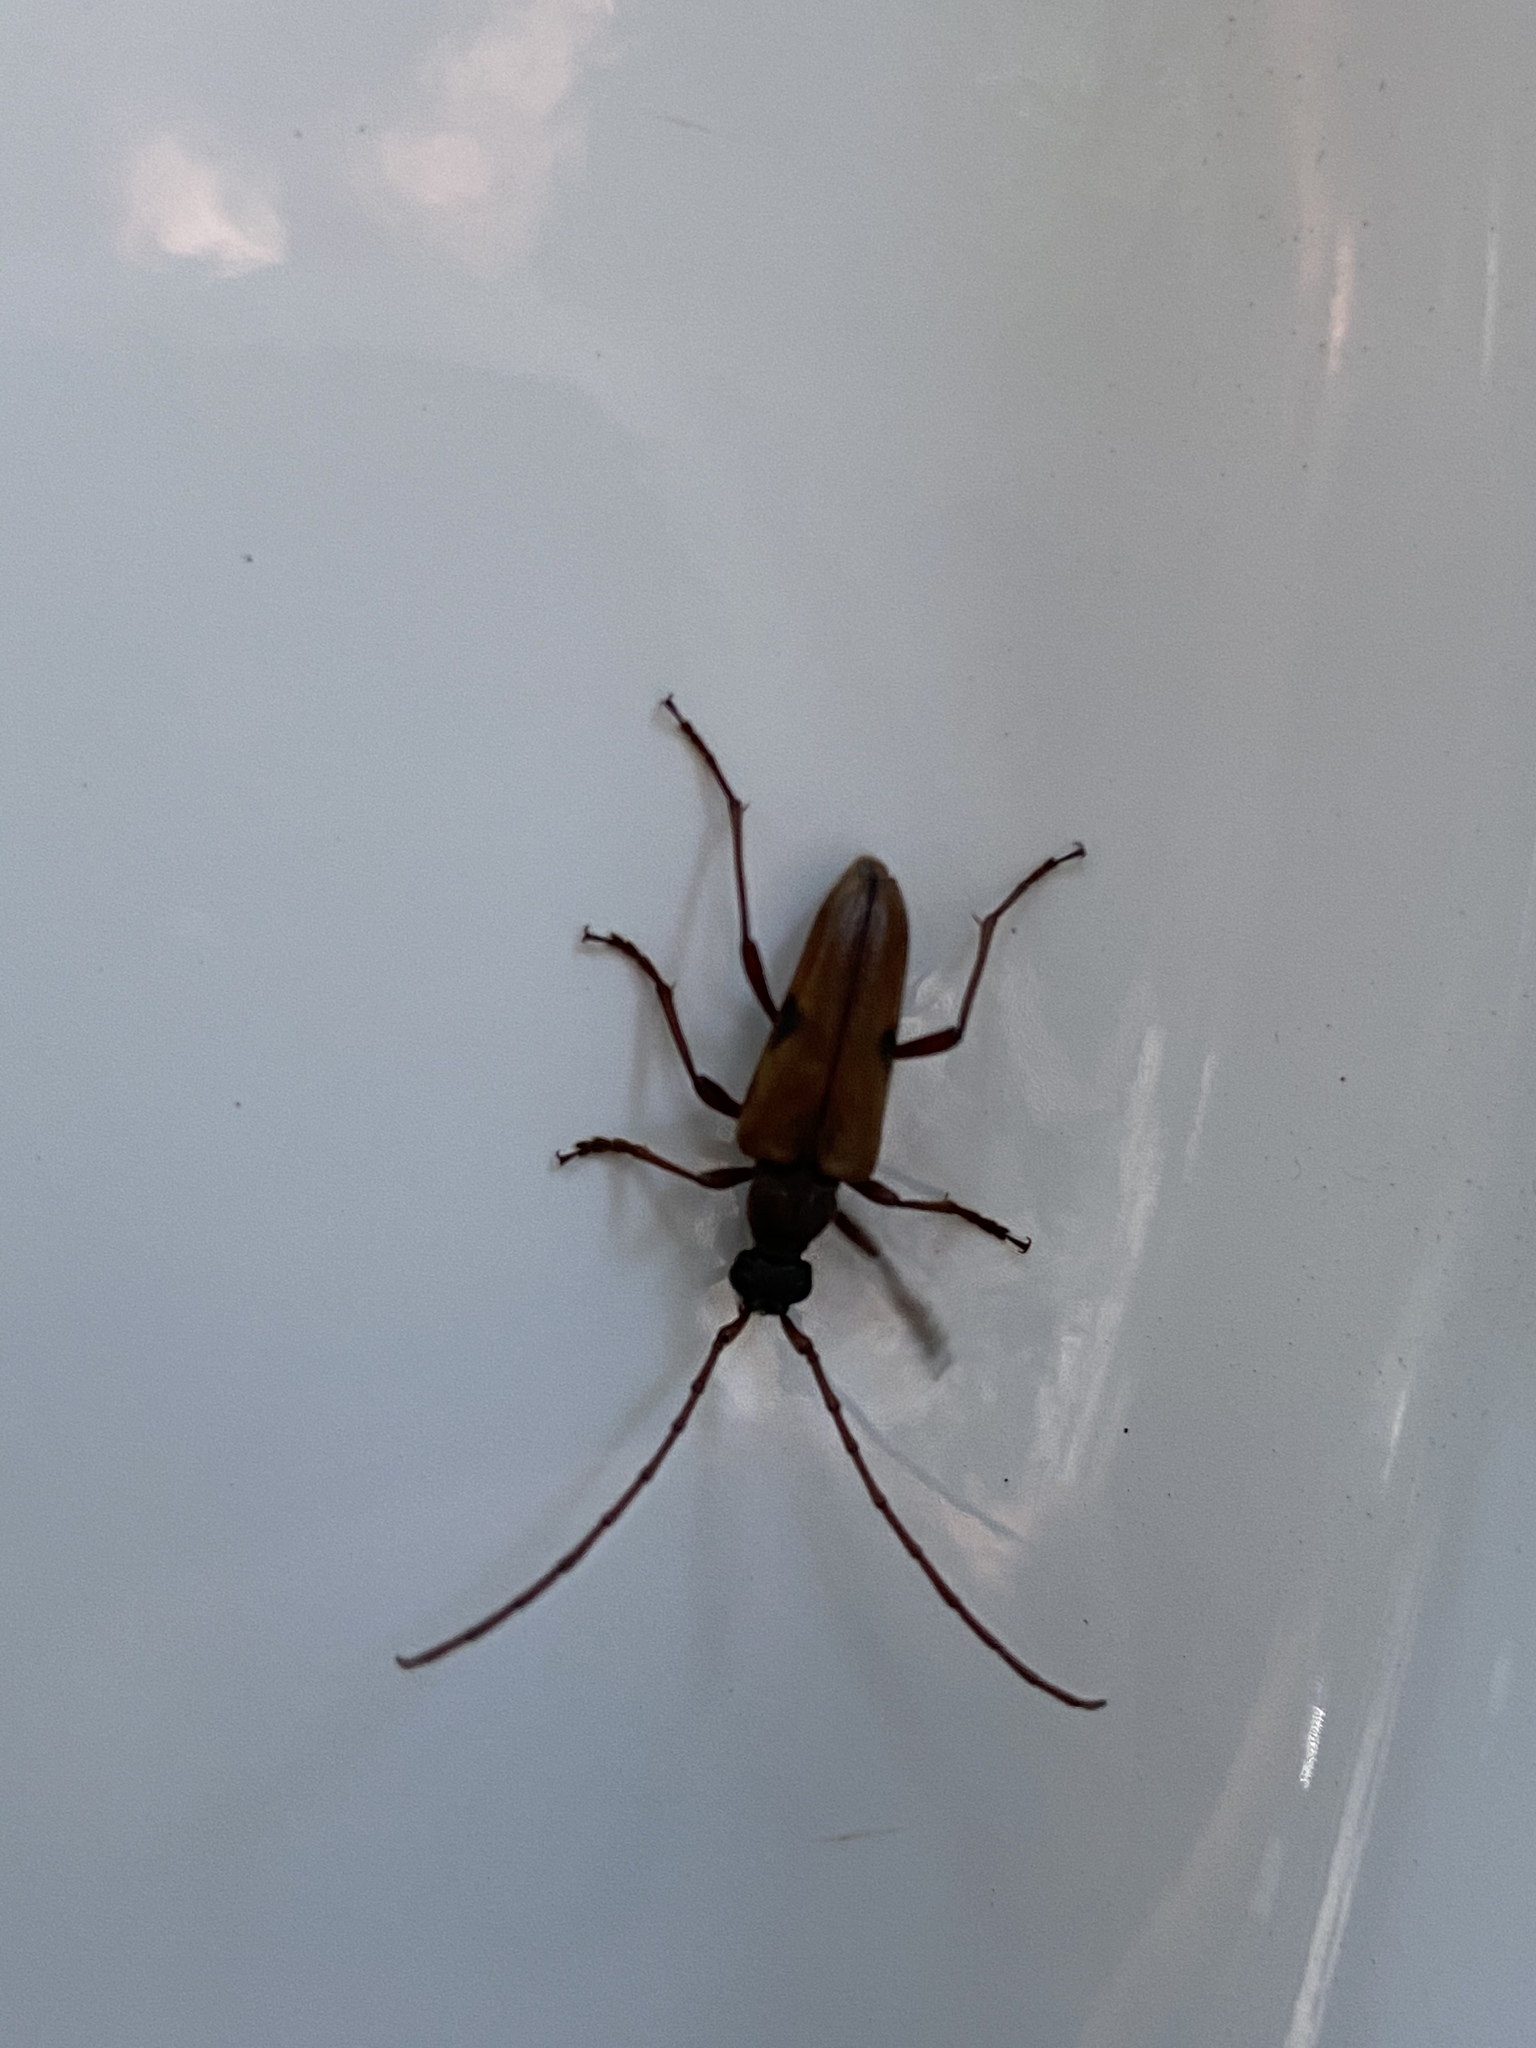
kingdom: Animalia
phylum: Arthropoda
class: Insecta
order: Coleoptera
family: Cerambycidae
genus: Lepturopsis
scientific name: Lepturopsis biforis
